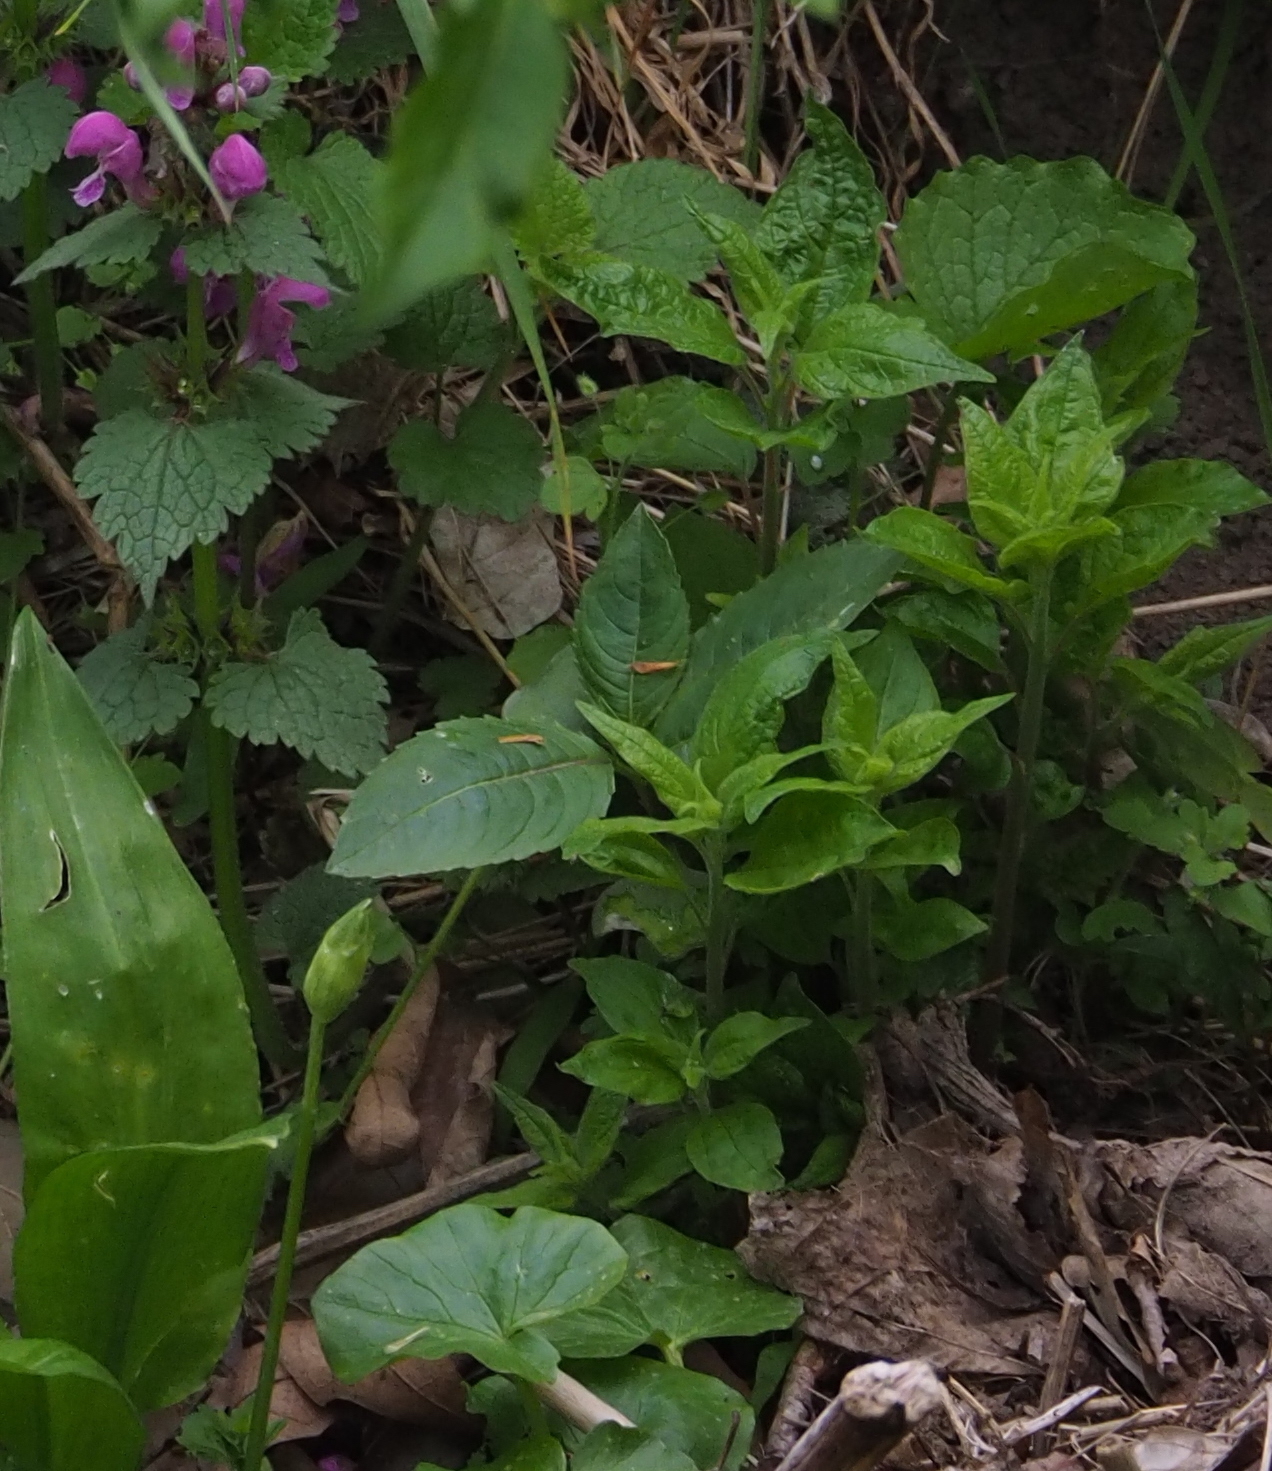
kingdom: Plantae
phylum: Tracheophyta
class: Magnoliopsida
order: Ericales
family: Balsaminaceae
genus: Impatiens
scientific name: Impatiens glandulifera
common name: Himalayan balsam
